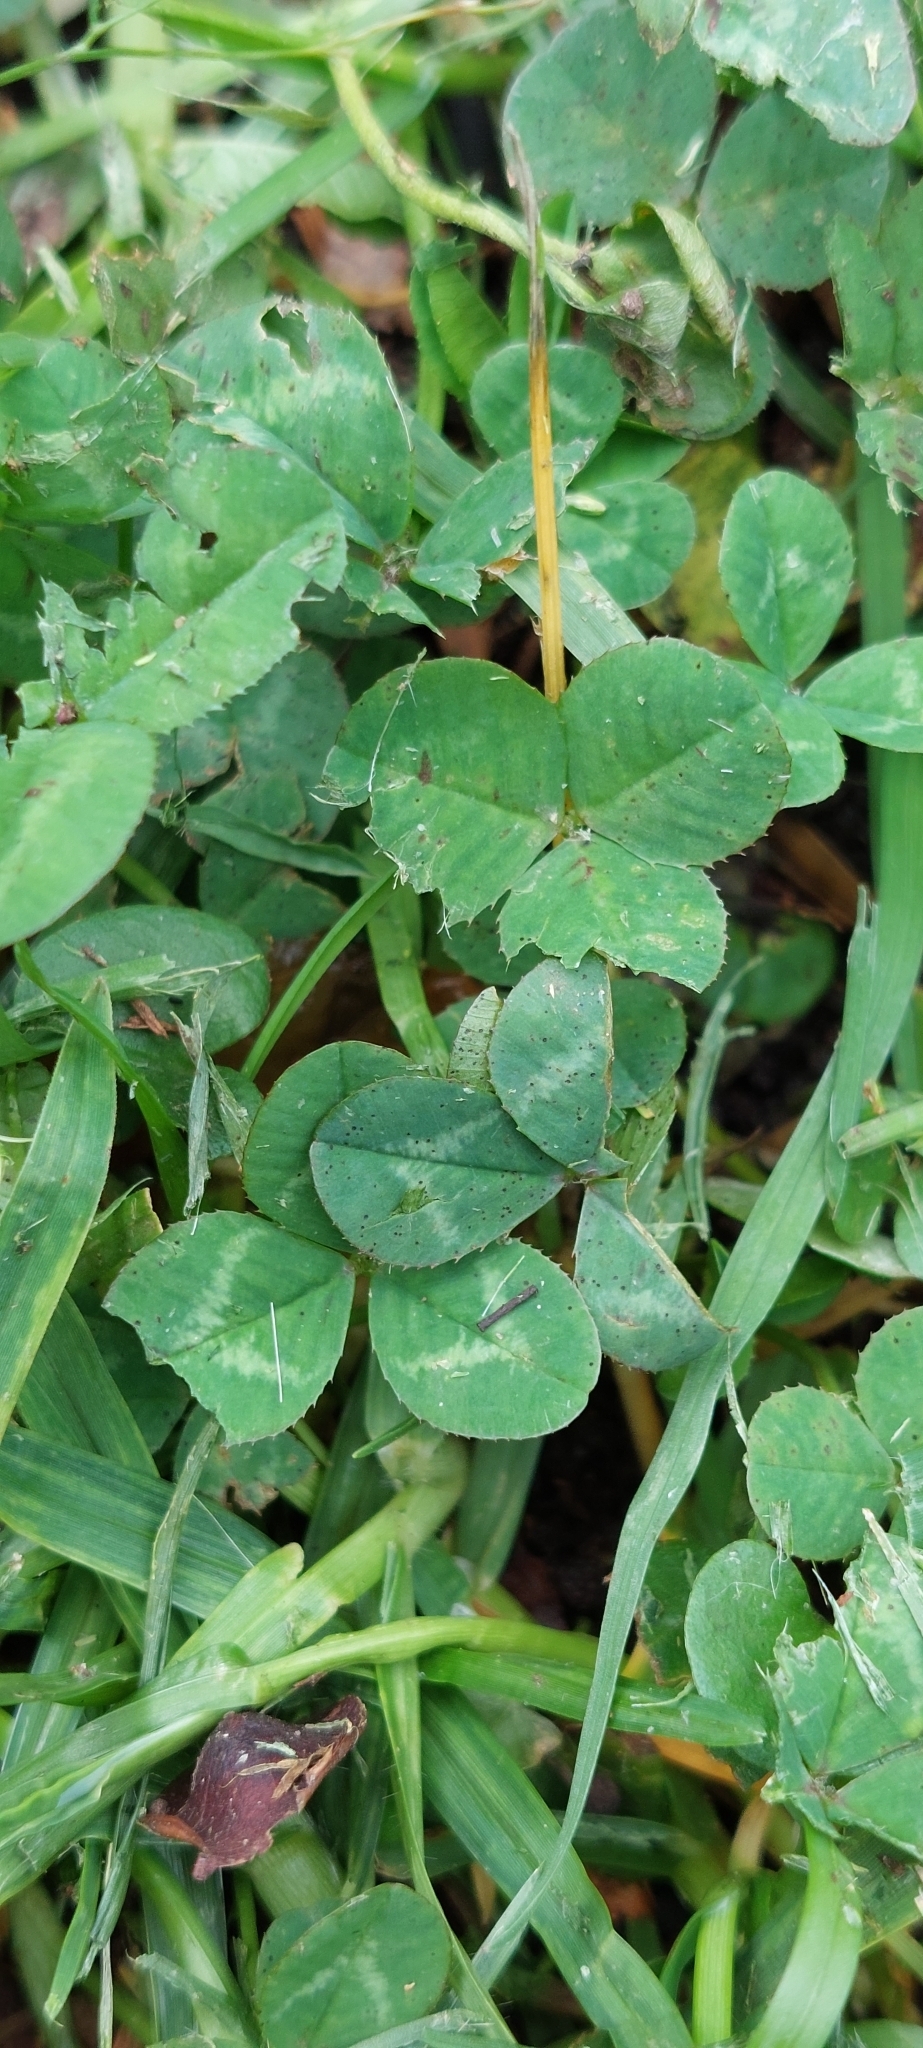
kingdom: Plantae
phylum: Tracheophyta
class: Magnoliopsida
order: Fabales
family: Fabaceae
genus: Trifolium
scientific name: Trifolium repens
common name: White clover
